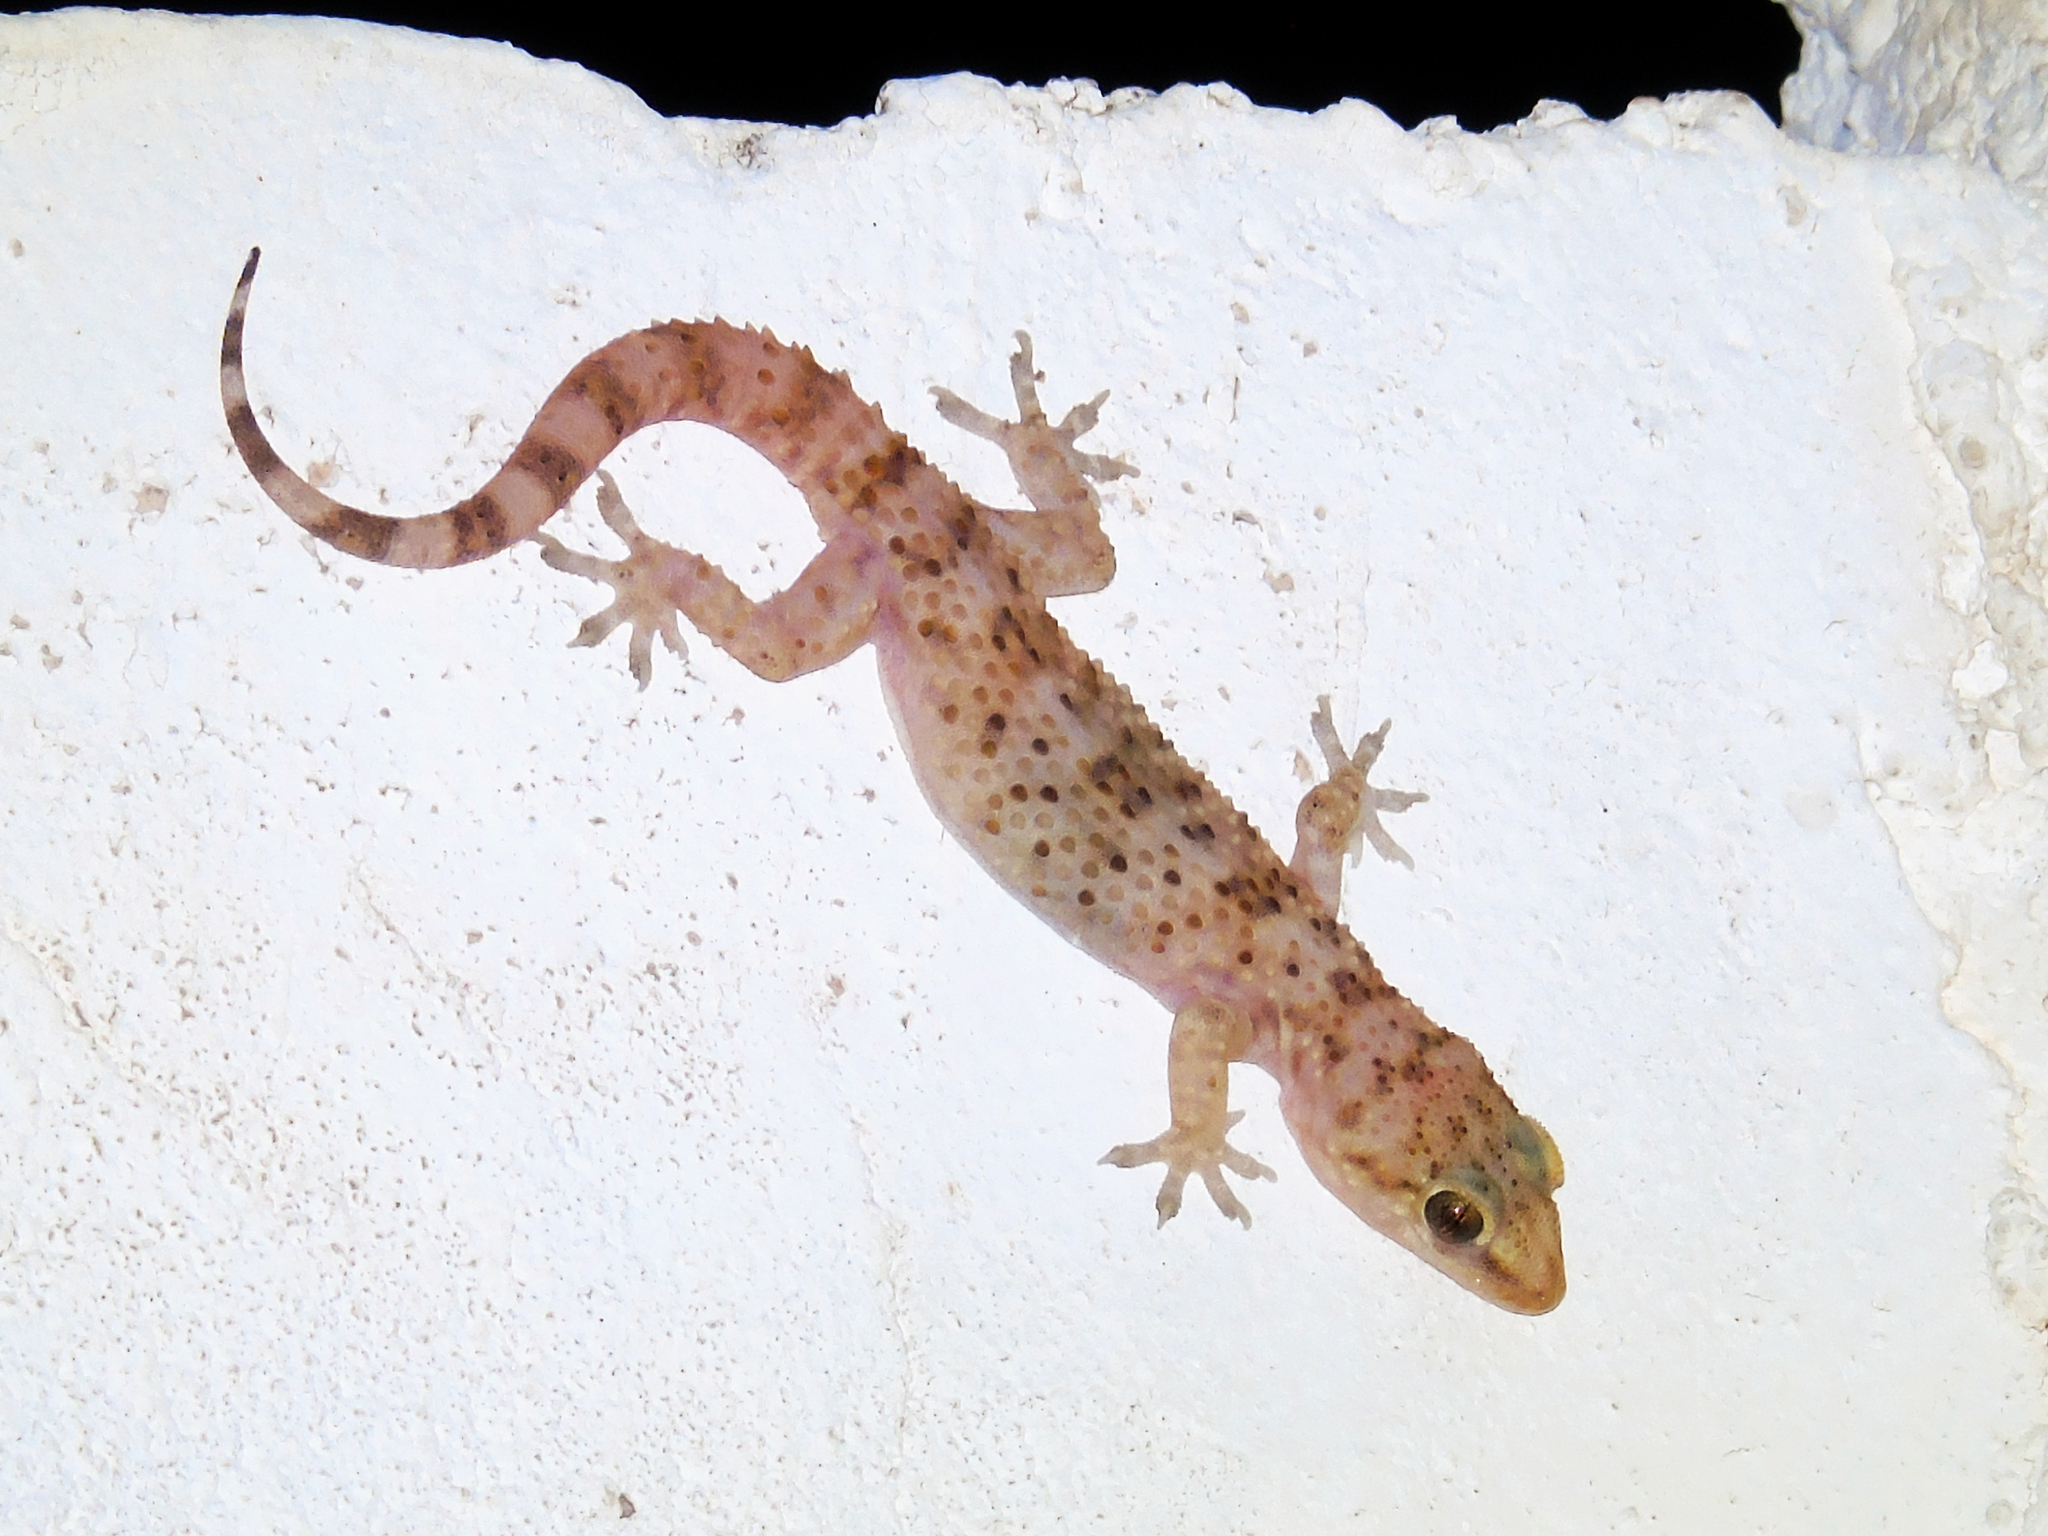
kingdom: Animalia
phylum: Chordata
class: Squamata
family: Gekkonidae
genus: Hemidactylus
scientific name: Hemidactylus turcicus
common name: Turkish gecko
